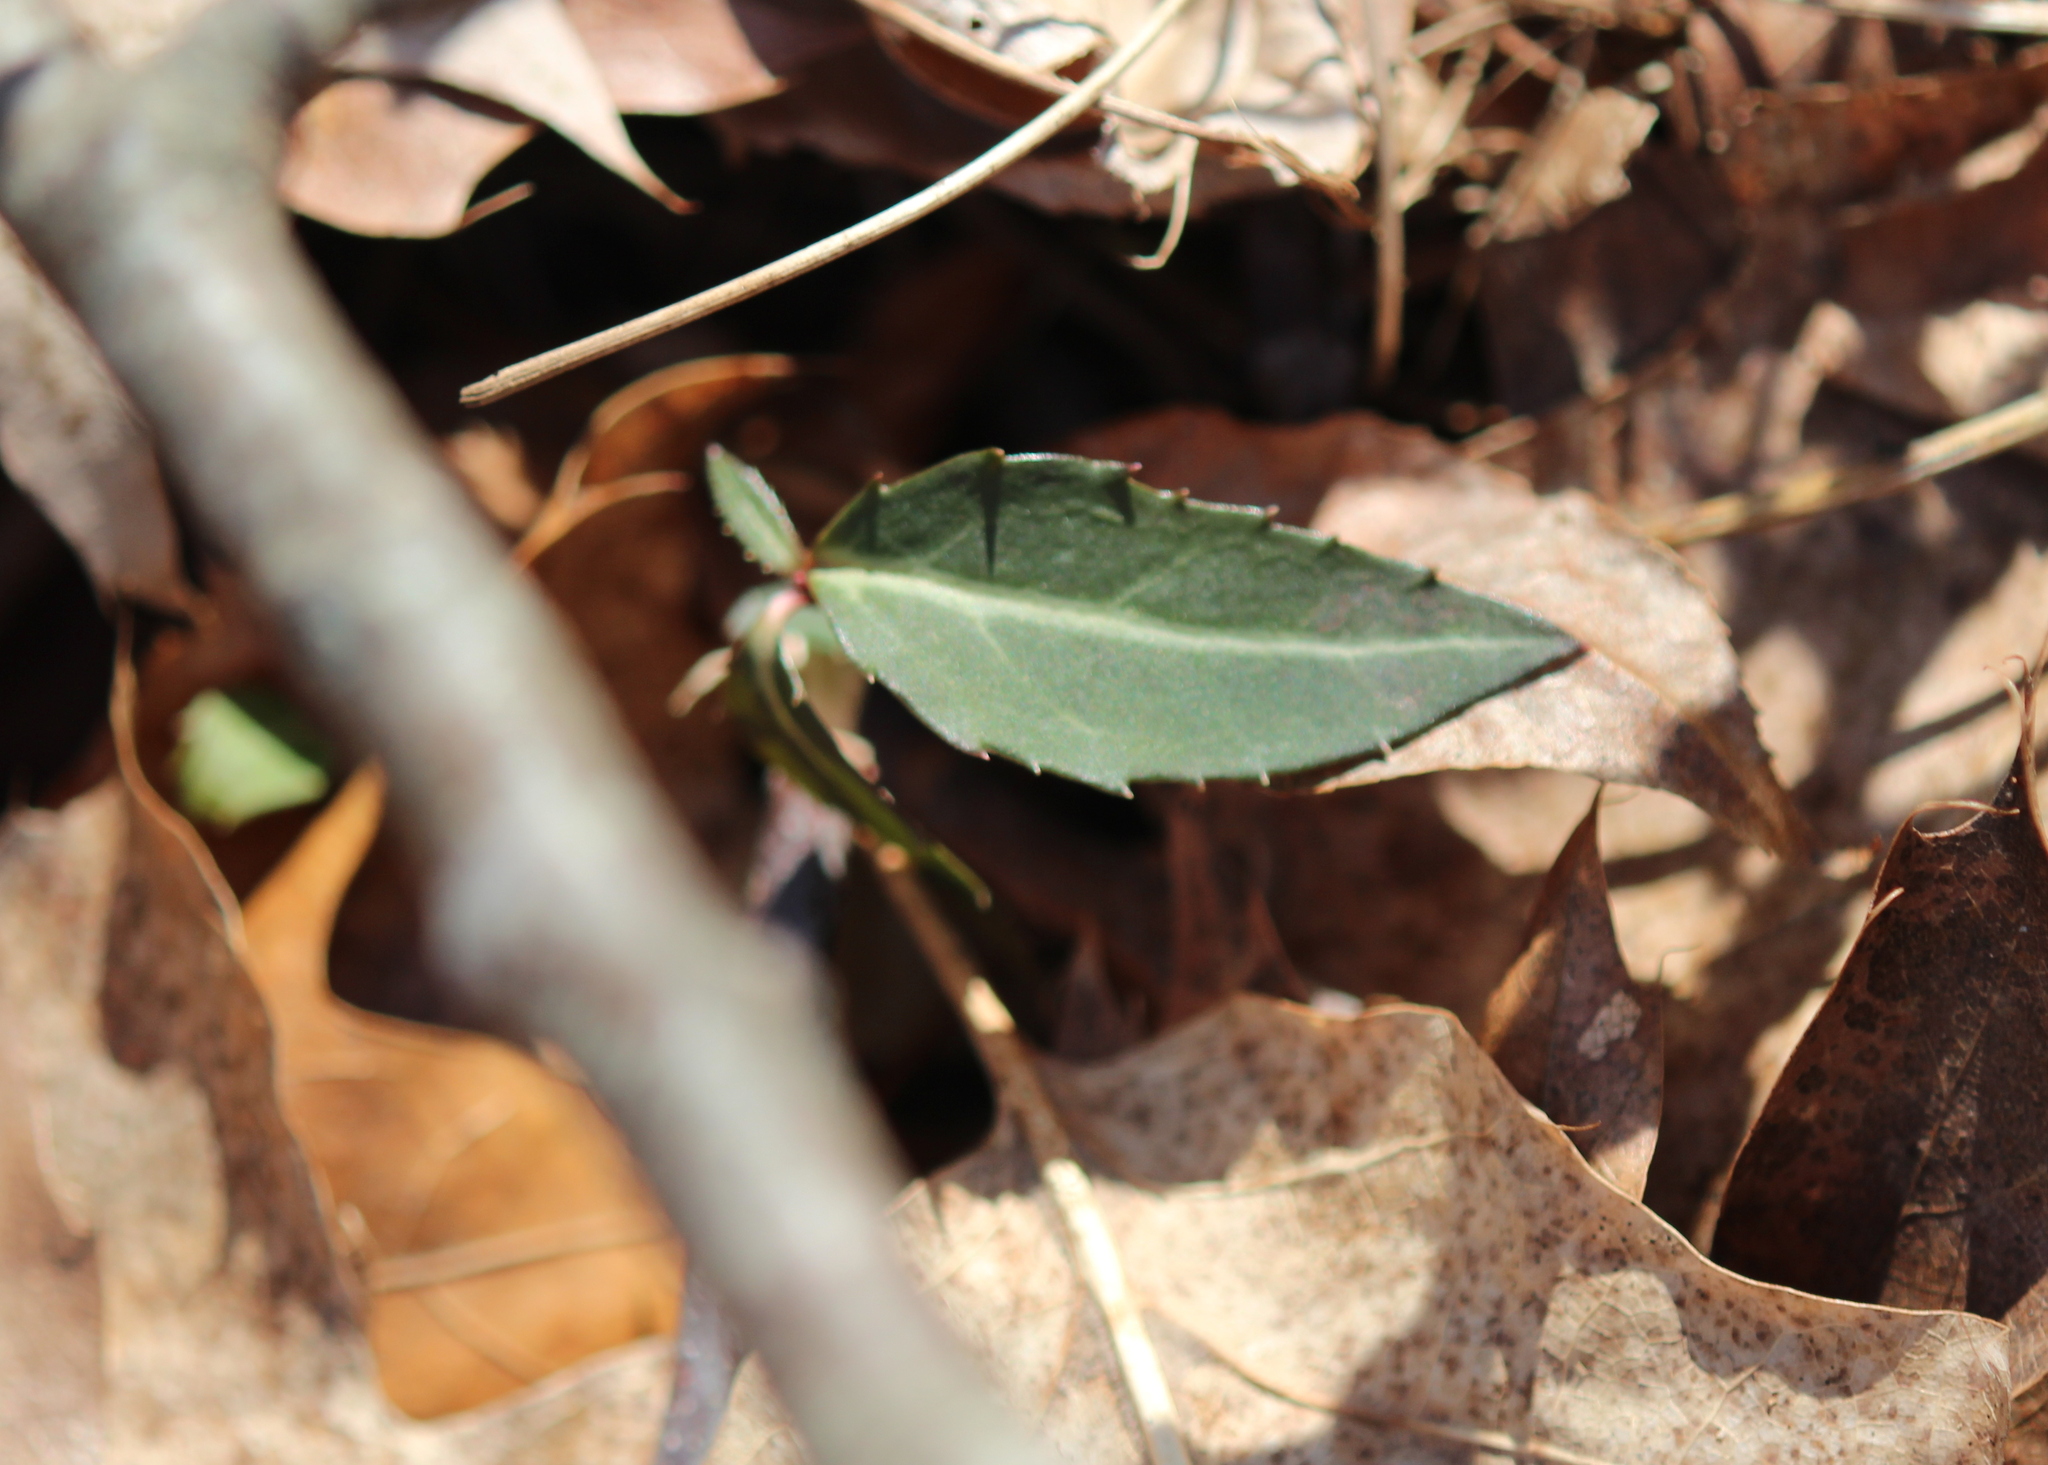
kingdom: Plantae
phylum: Tracheophyta
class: Magnoliopsida
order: Ericales
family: Ericaceae
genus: Chimaphila
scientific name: Chimaphila maculata
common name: Spotted pipsissewa
